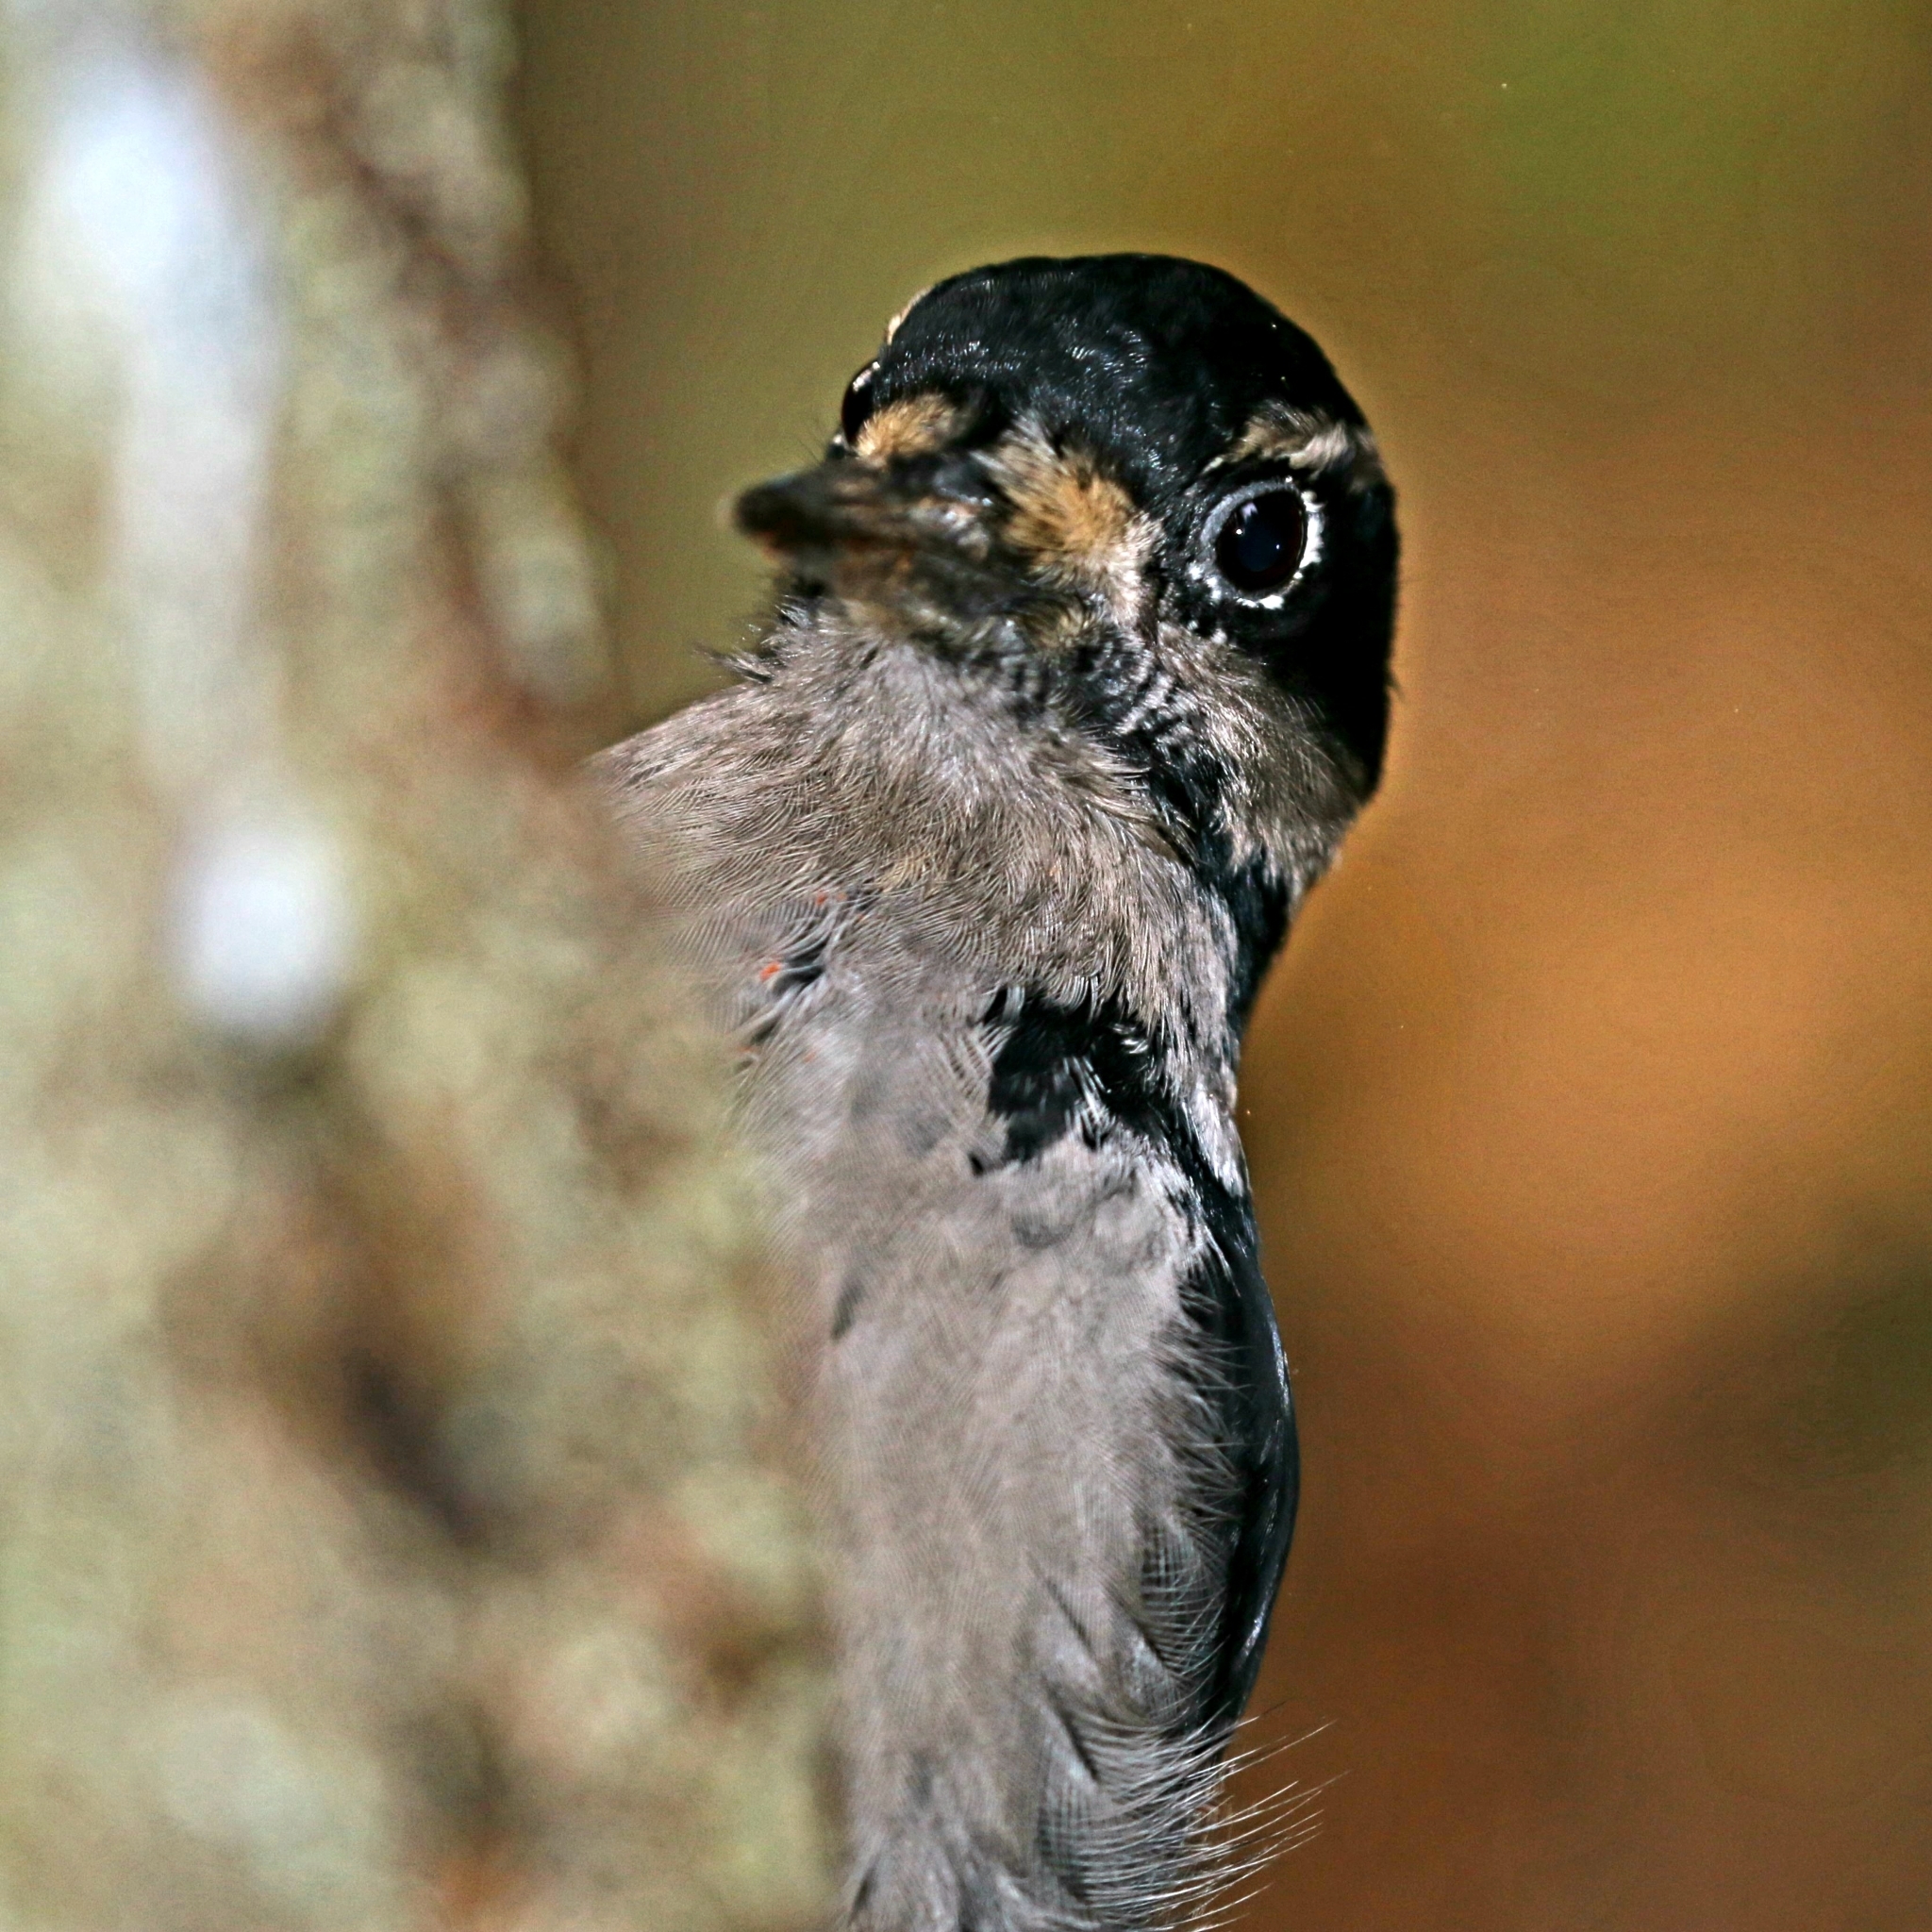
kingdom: Animalia
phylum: Chordata
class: Aves
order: Piciformes
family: Picidae
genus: Leuconotopicus
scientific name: Leuconotopicus villosus
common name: Hairy woodpecker
